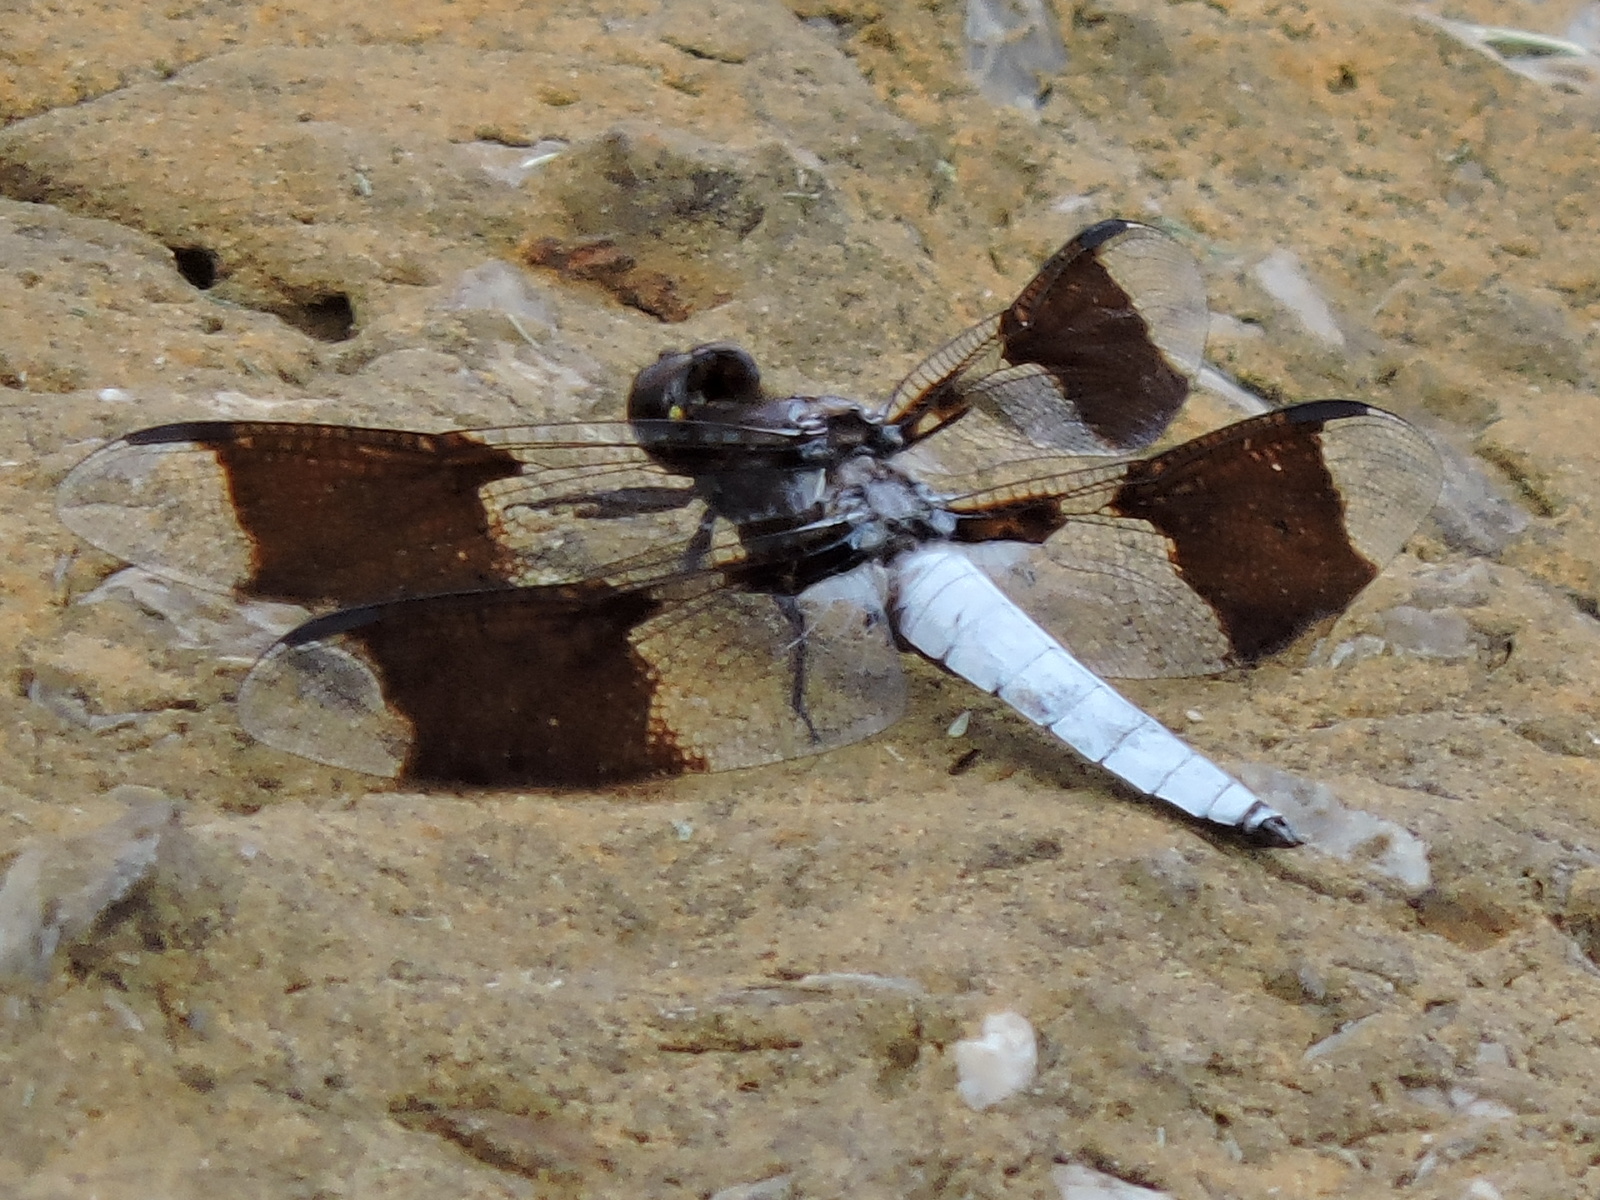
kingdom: Animalia
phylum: Arthropoda
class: Insecta
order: Odonata
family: Libellulidae
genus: Plathemis
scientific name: Plathemis lydia
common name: Common whitetail
